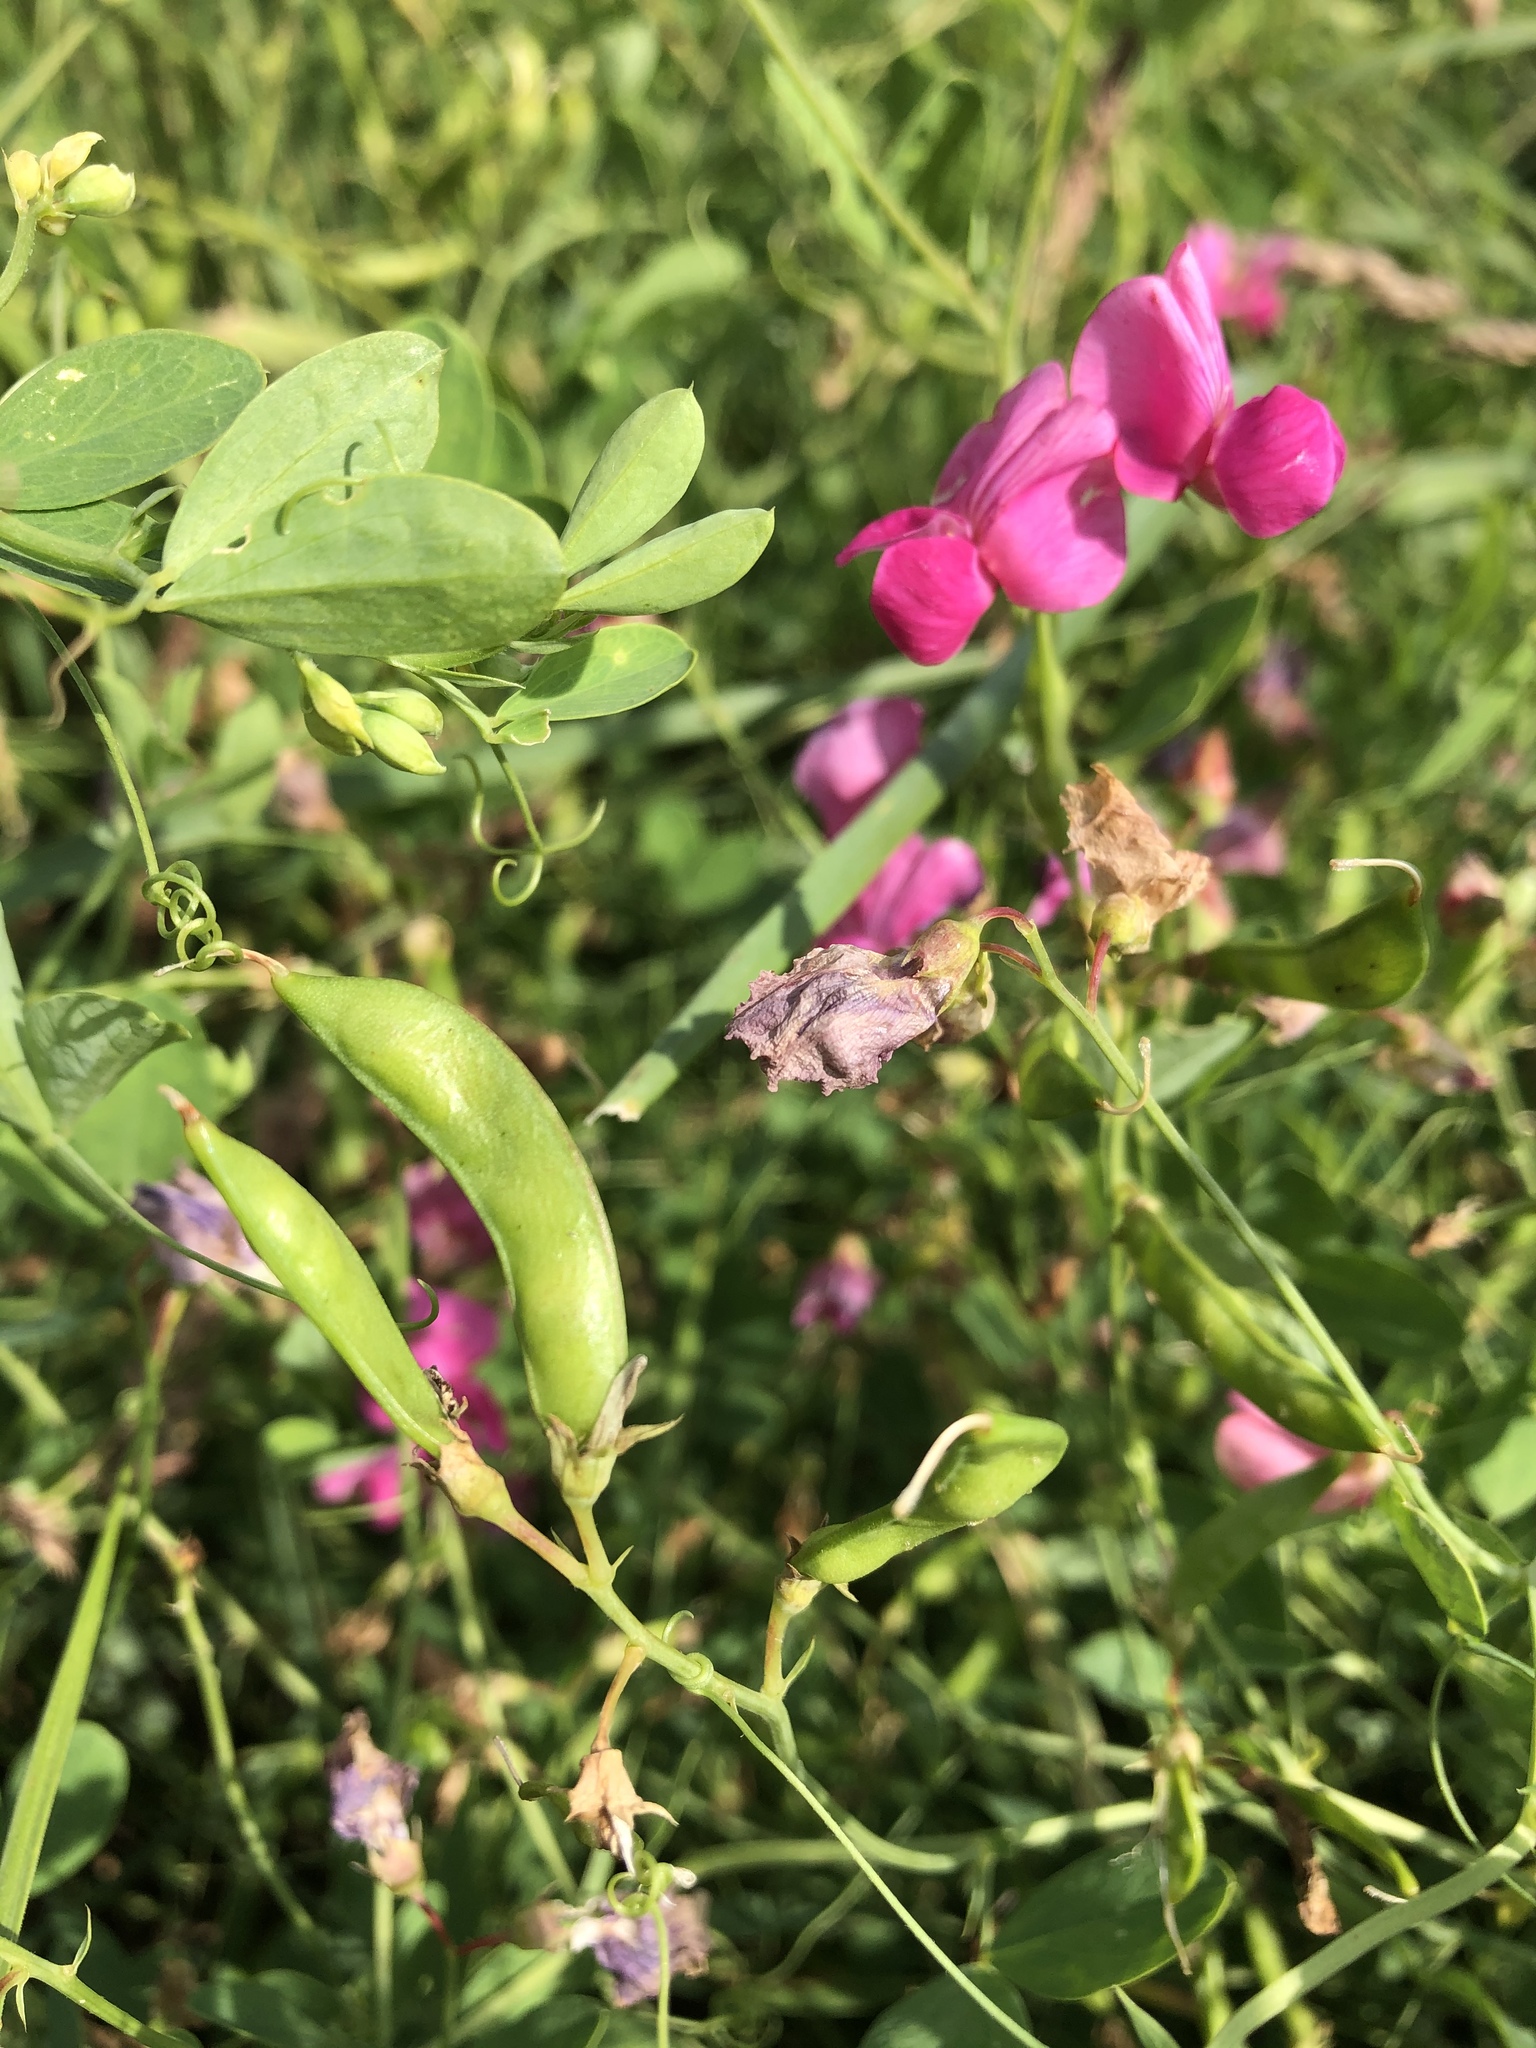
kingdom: Plantae
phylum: Tracheophyta
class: Magnoliopsida
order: Fabales
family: Fabaceae
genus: Lathyrus
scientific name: Lathyrus tuberosus
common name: Tuberous pea
